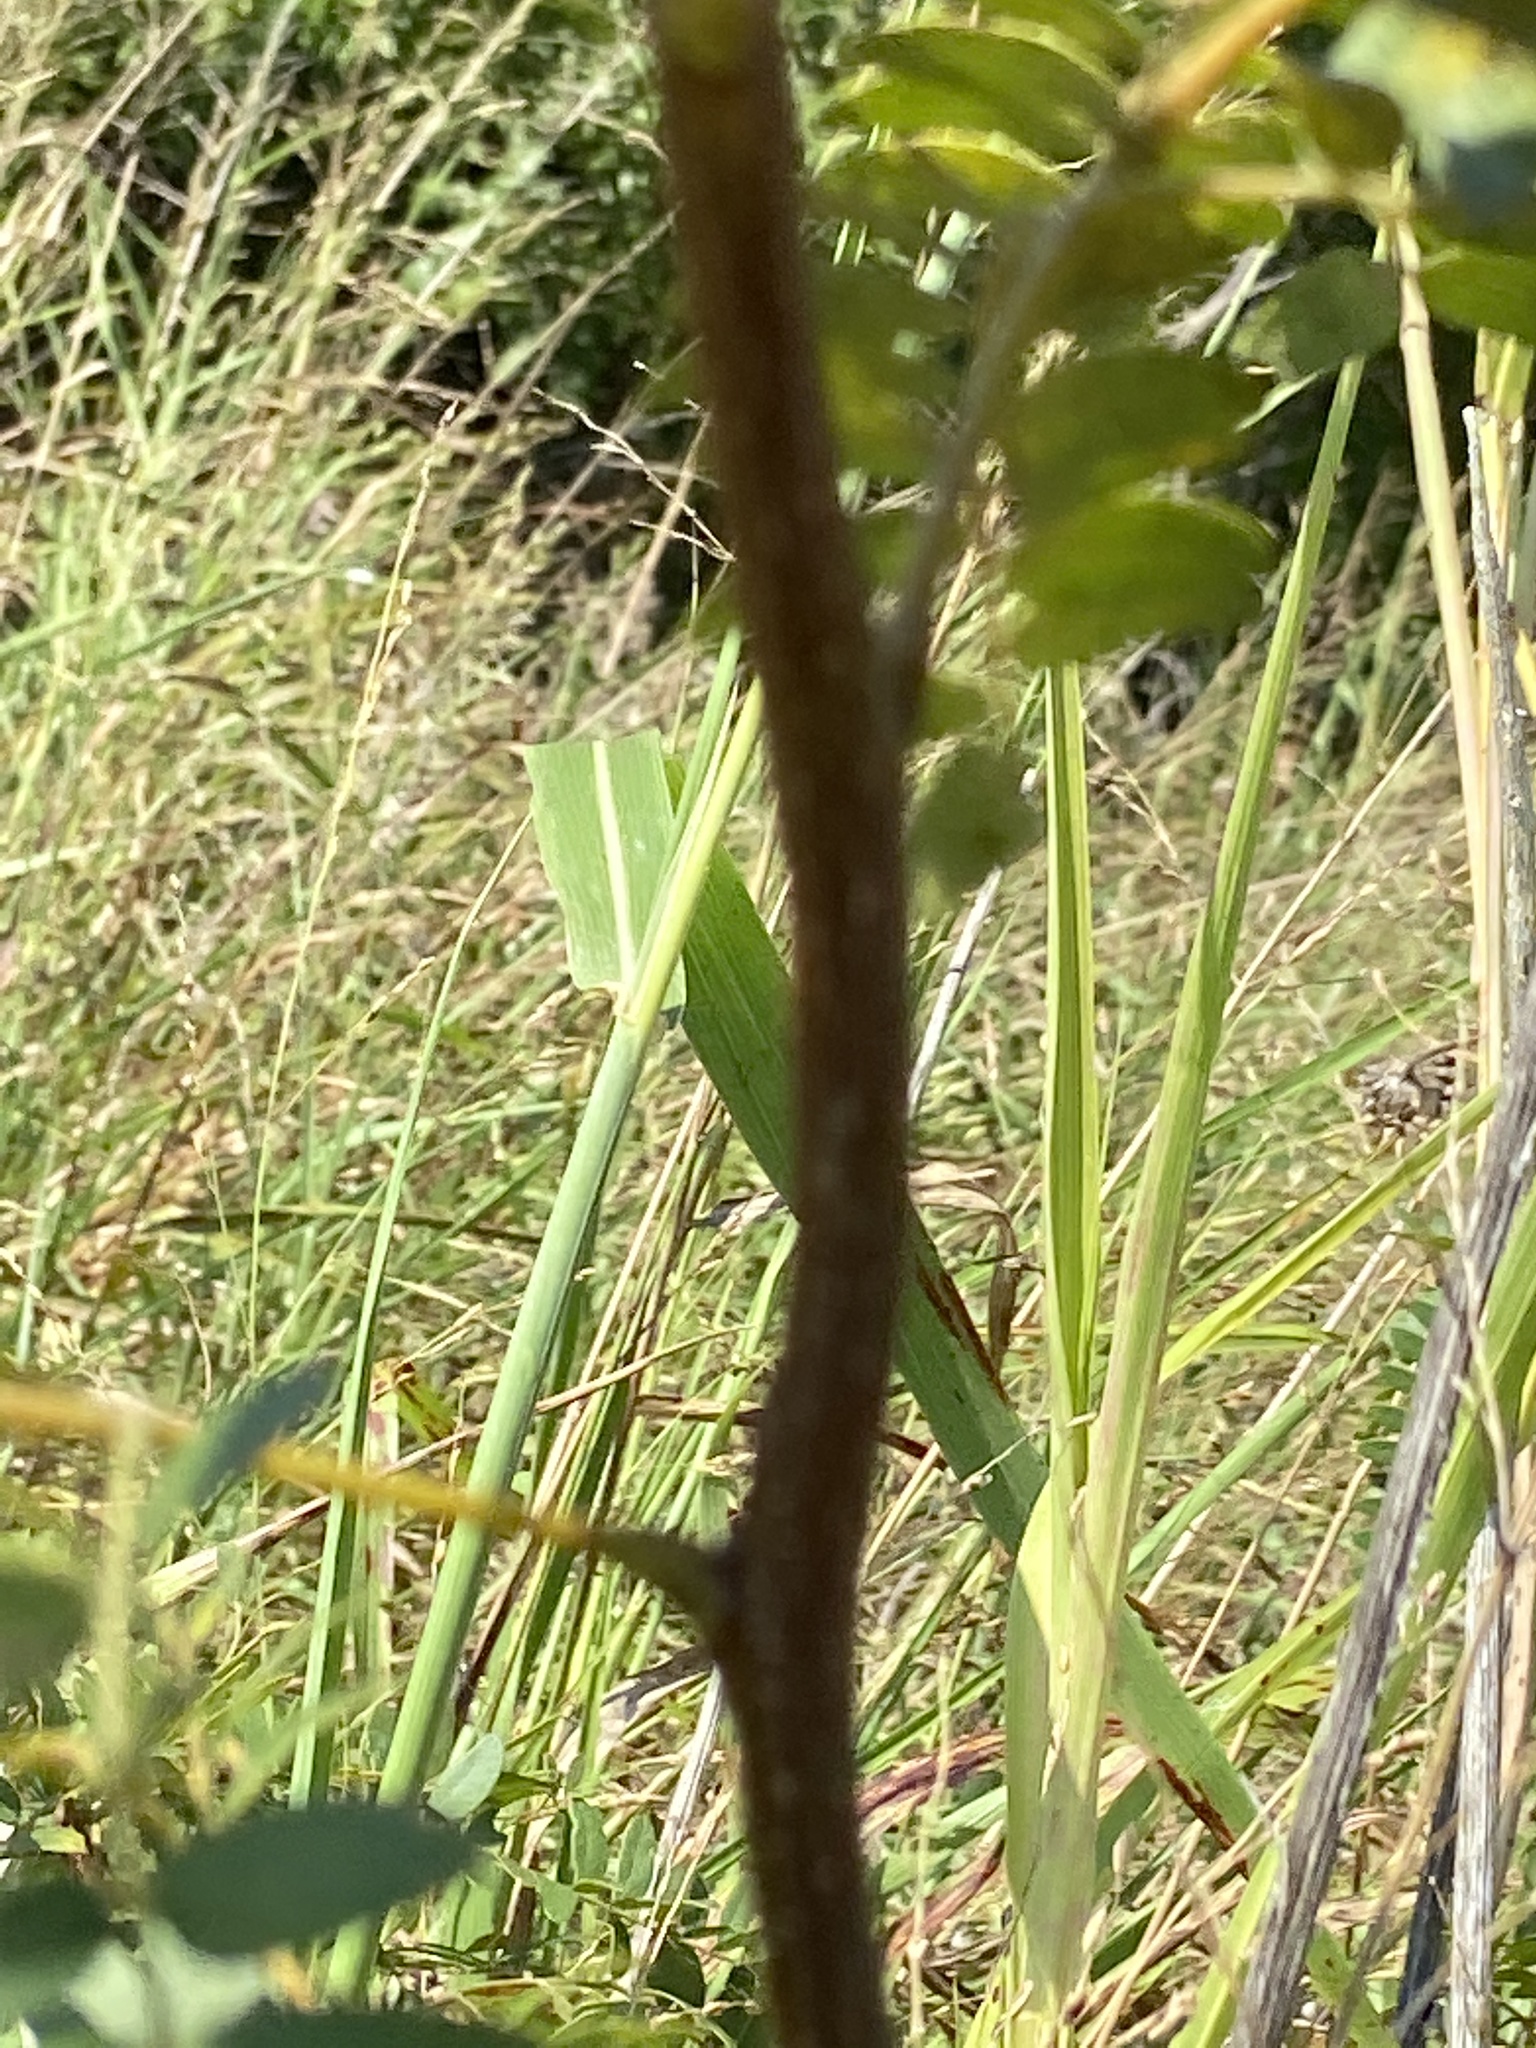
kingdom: Plantae
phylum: Tracheophyta
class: Magnoliopsida
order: Fabales
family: Fabaceae
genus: Gleditsia
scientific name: Gleditsia triacanthos
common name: Common honeylocust
